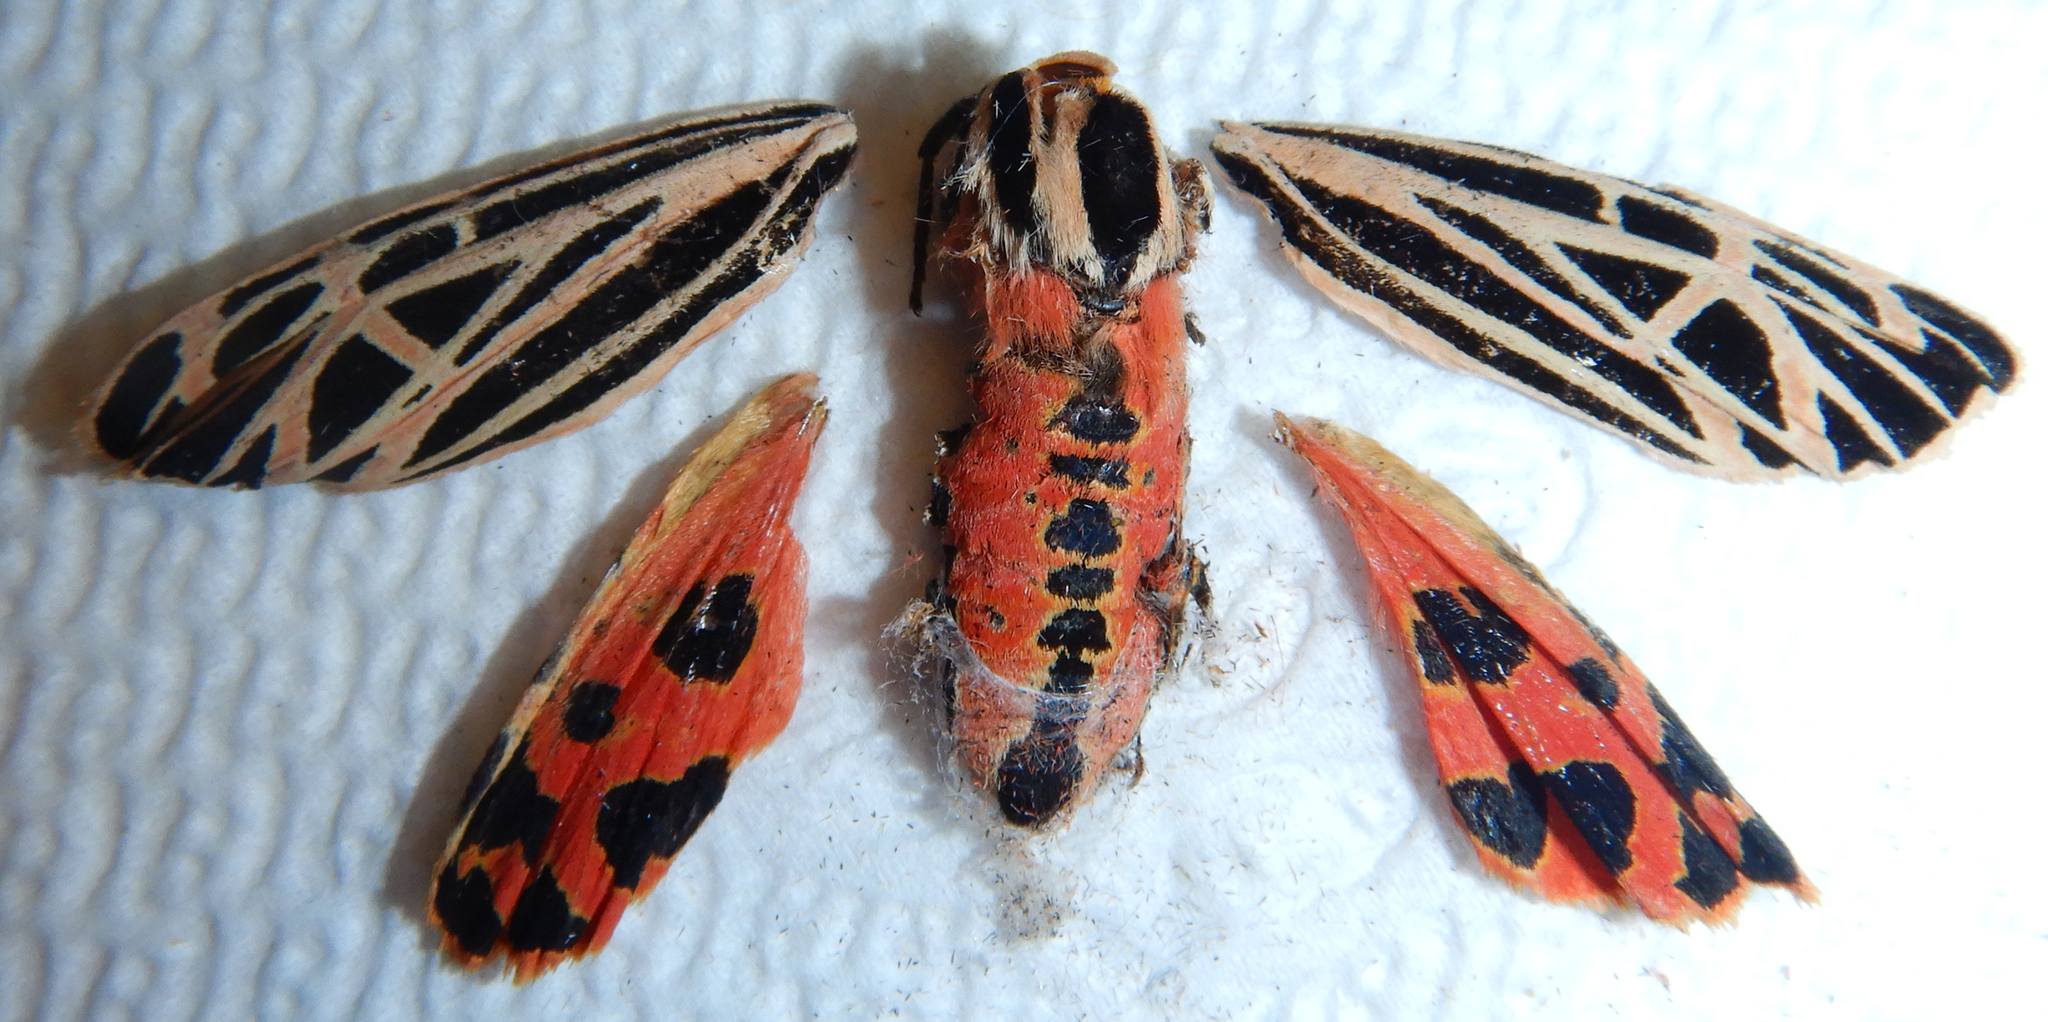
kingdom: Animalia
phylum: Arthropoda
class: Insecta
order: Lepidoptera
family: Erebidae
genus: Grammia
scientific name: Grammia virgo
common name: Virgin tiger moth
